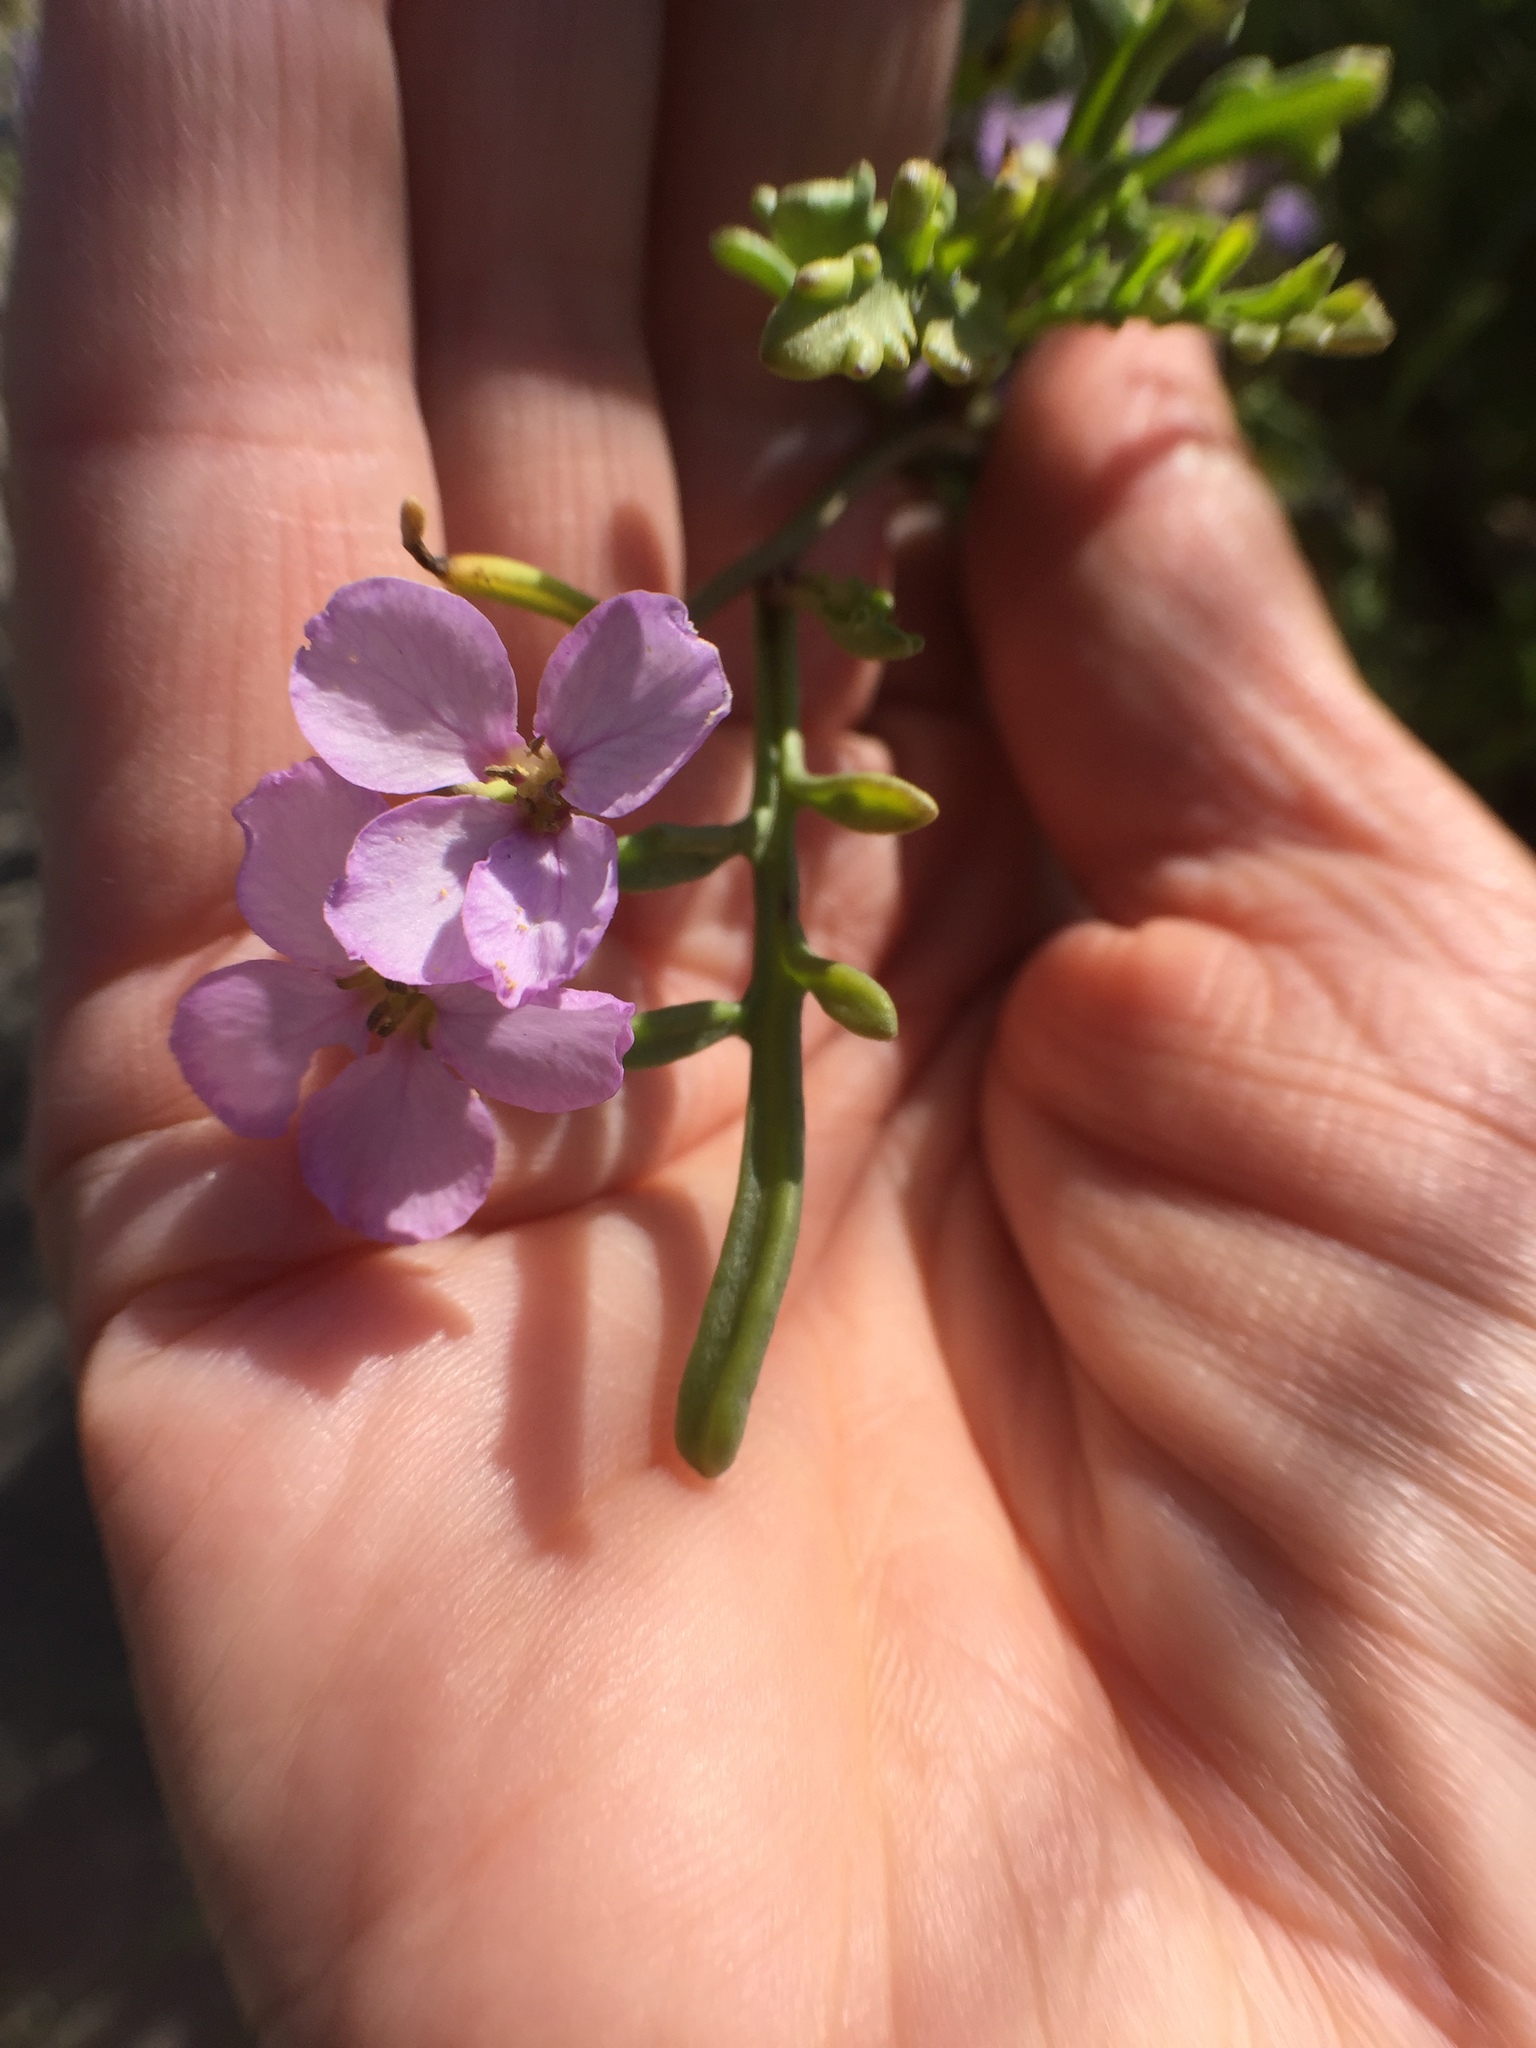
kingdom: Plantae
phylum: Tracheophyta
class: Magnoliopsida
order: Brassicales
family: Brassicaceae
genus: Cakile
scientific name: Cakile maritima
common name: Sea rocket
